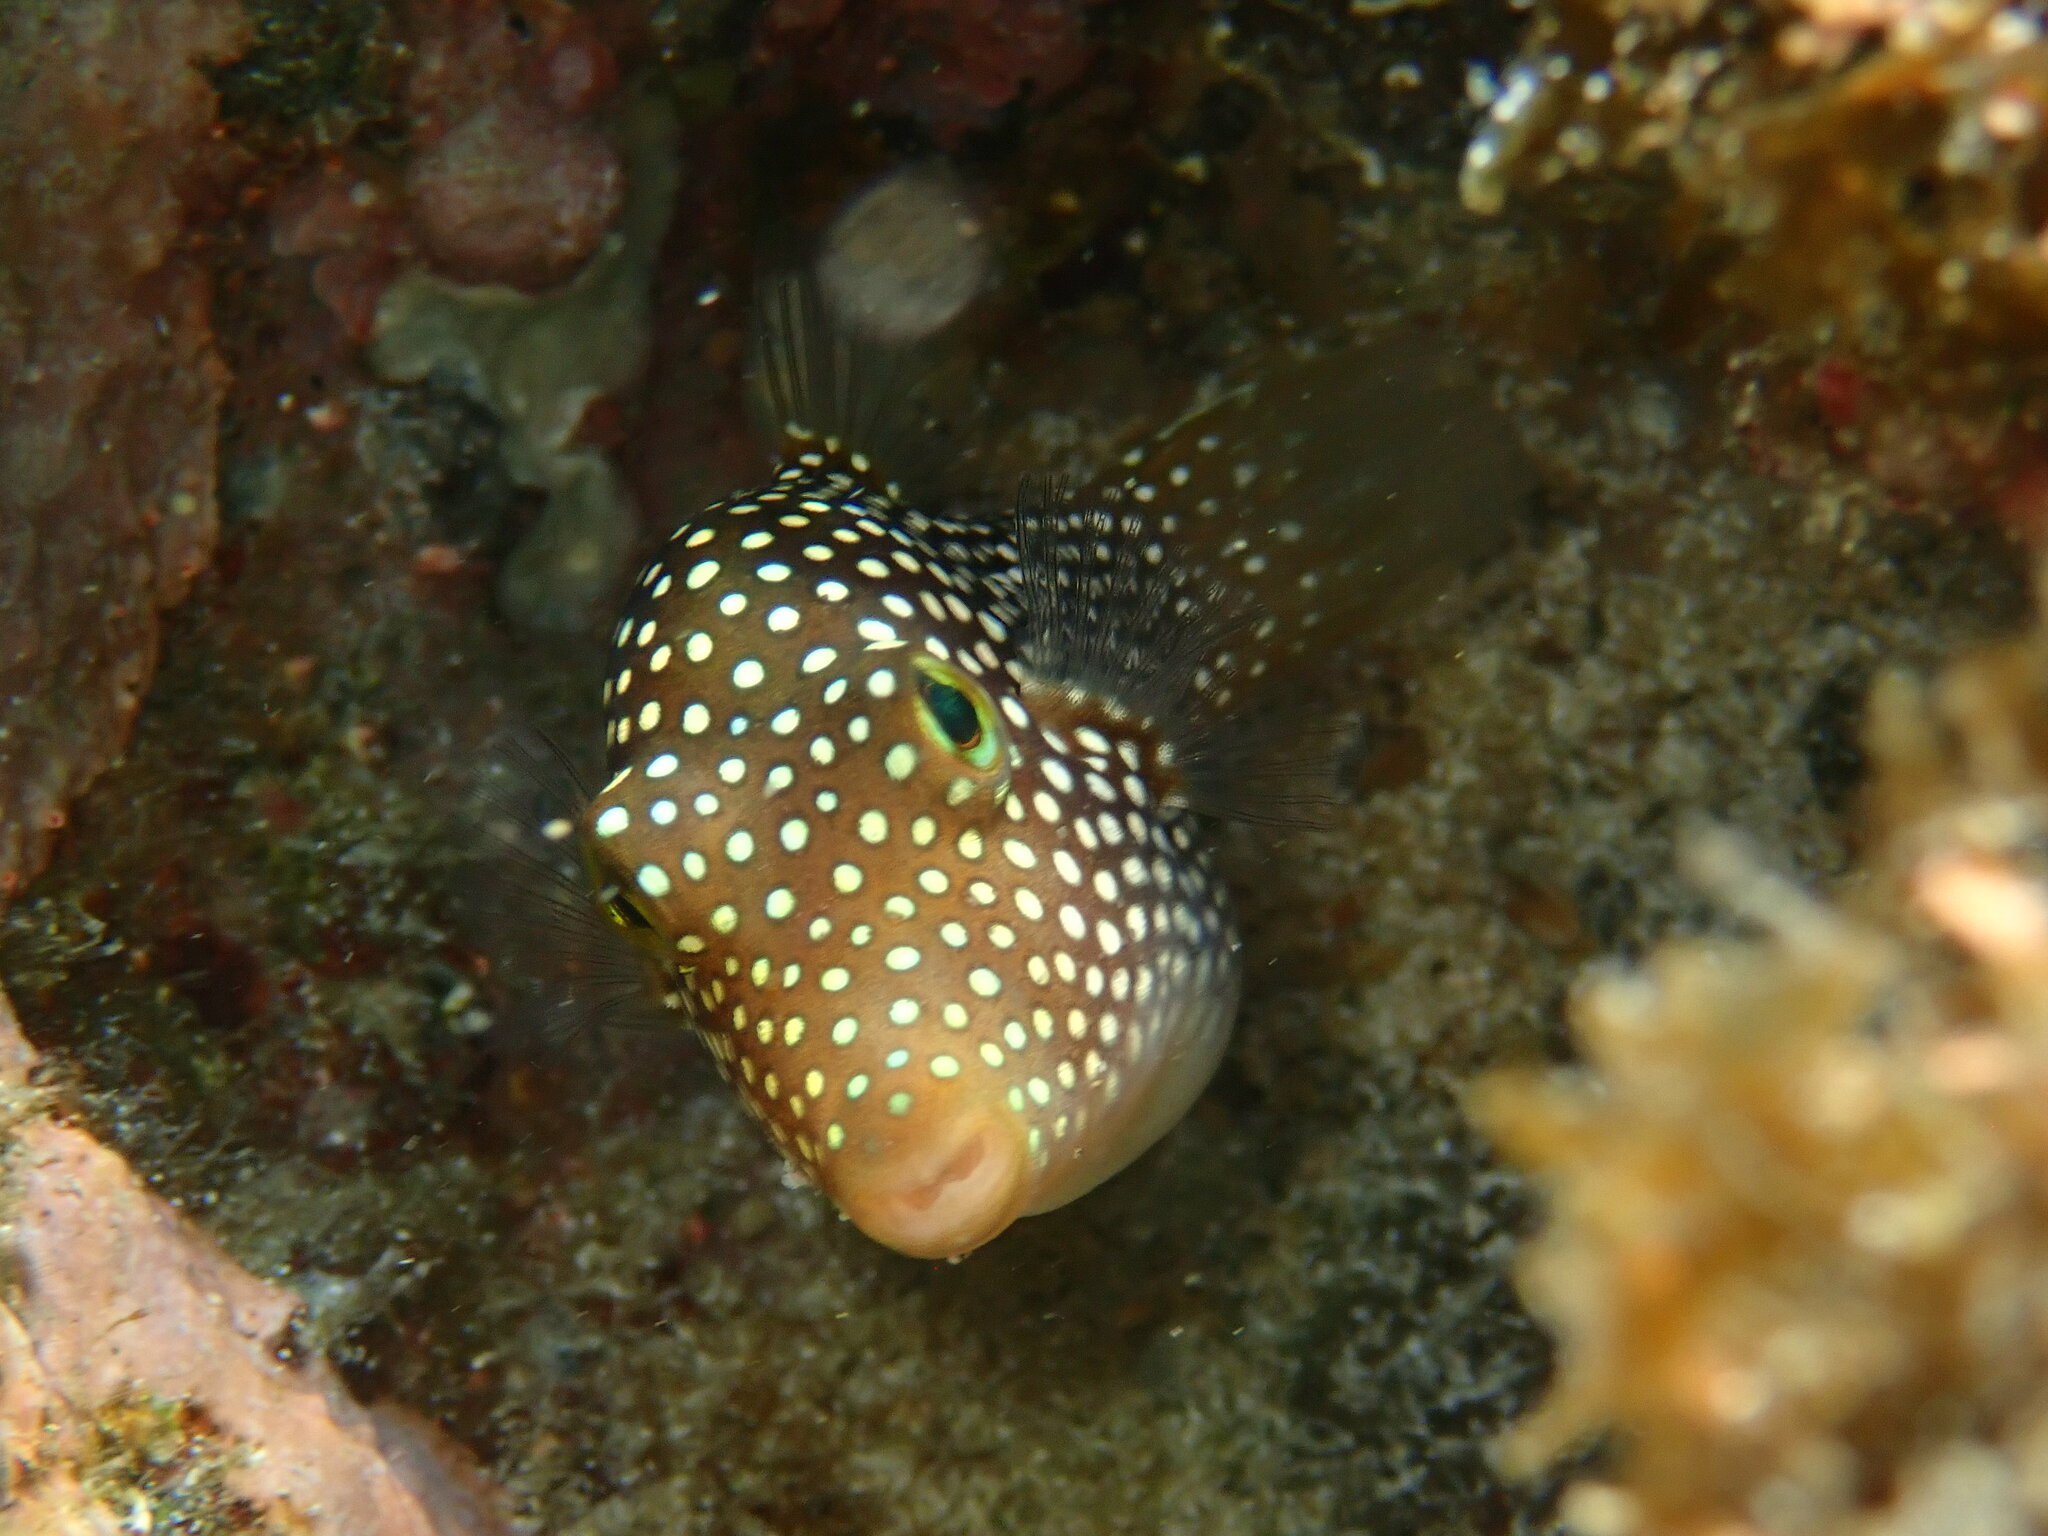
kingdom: Animalia
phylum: Chordata
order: Tetraodontiformes
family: Tetraodontidae
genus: Canthigaster
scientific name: Canthigaster punctatissima
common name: Spotted sharpnose puffer
